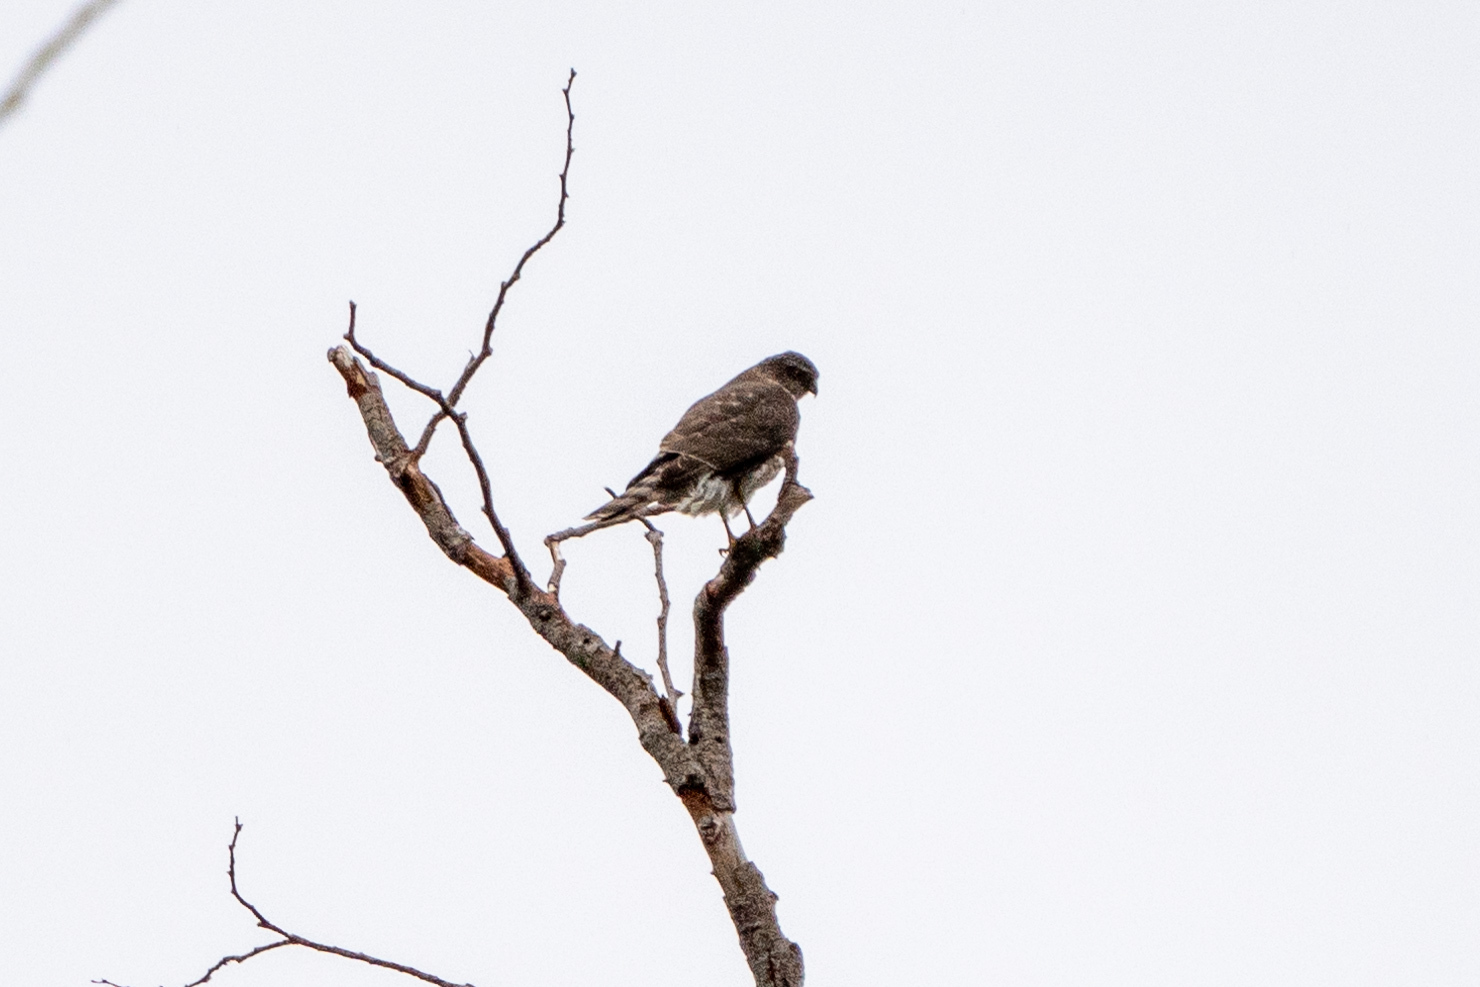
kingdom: Animalia
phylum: Chordata
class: Aves
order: Accipitriformes
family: Accipitridae
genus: Accipiter
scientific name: Accipiter striatus
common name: Sharp-shinned hawk
